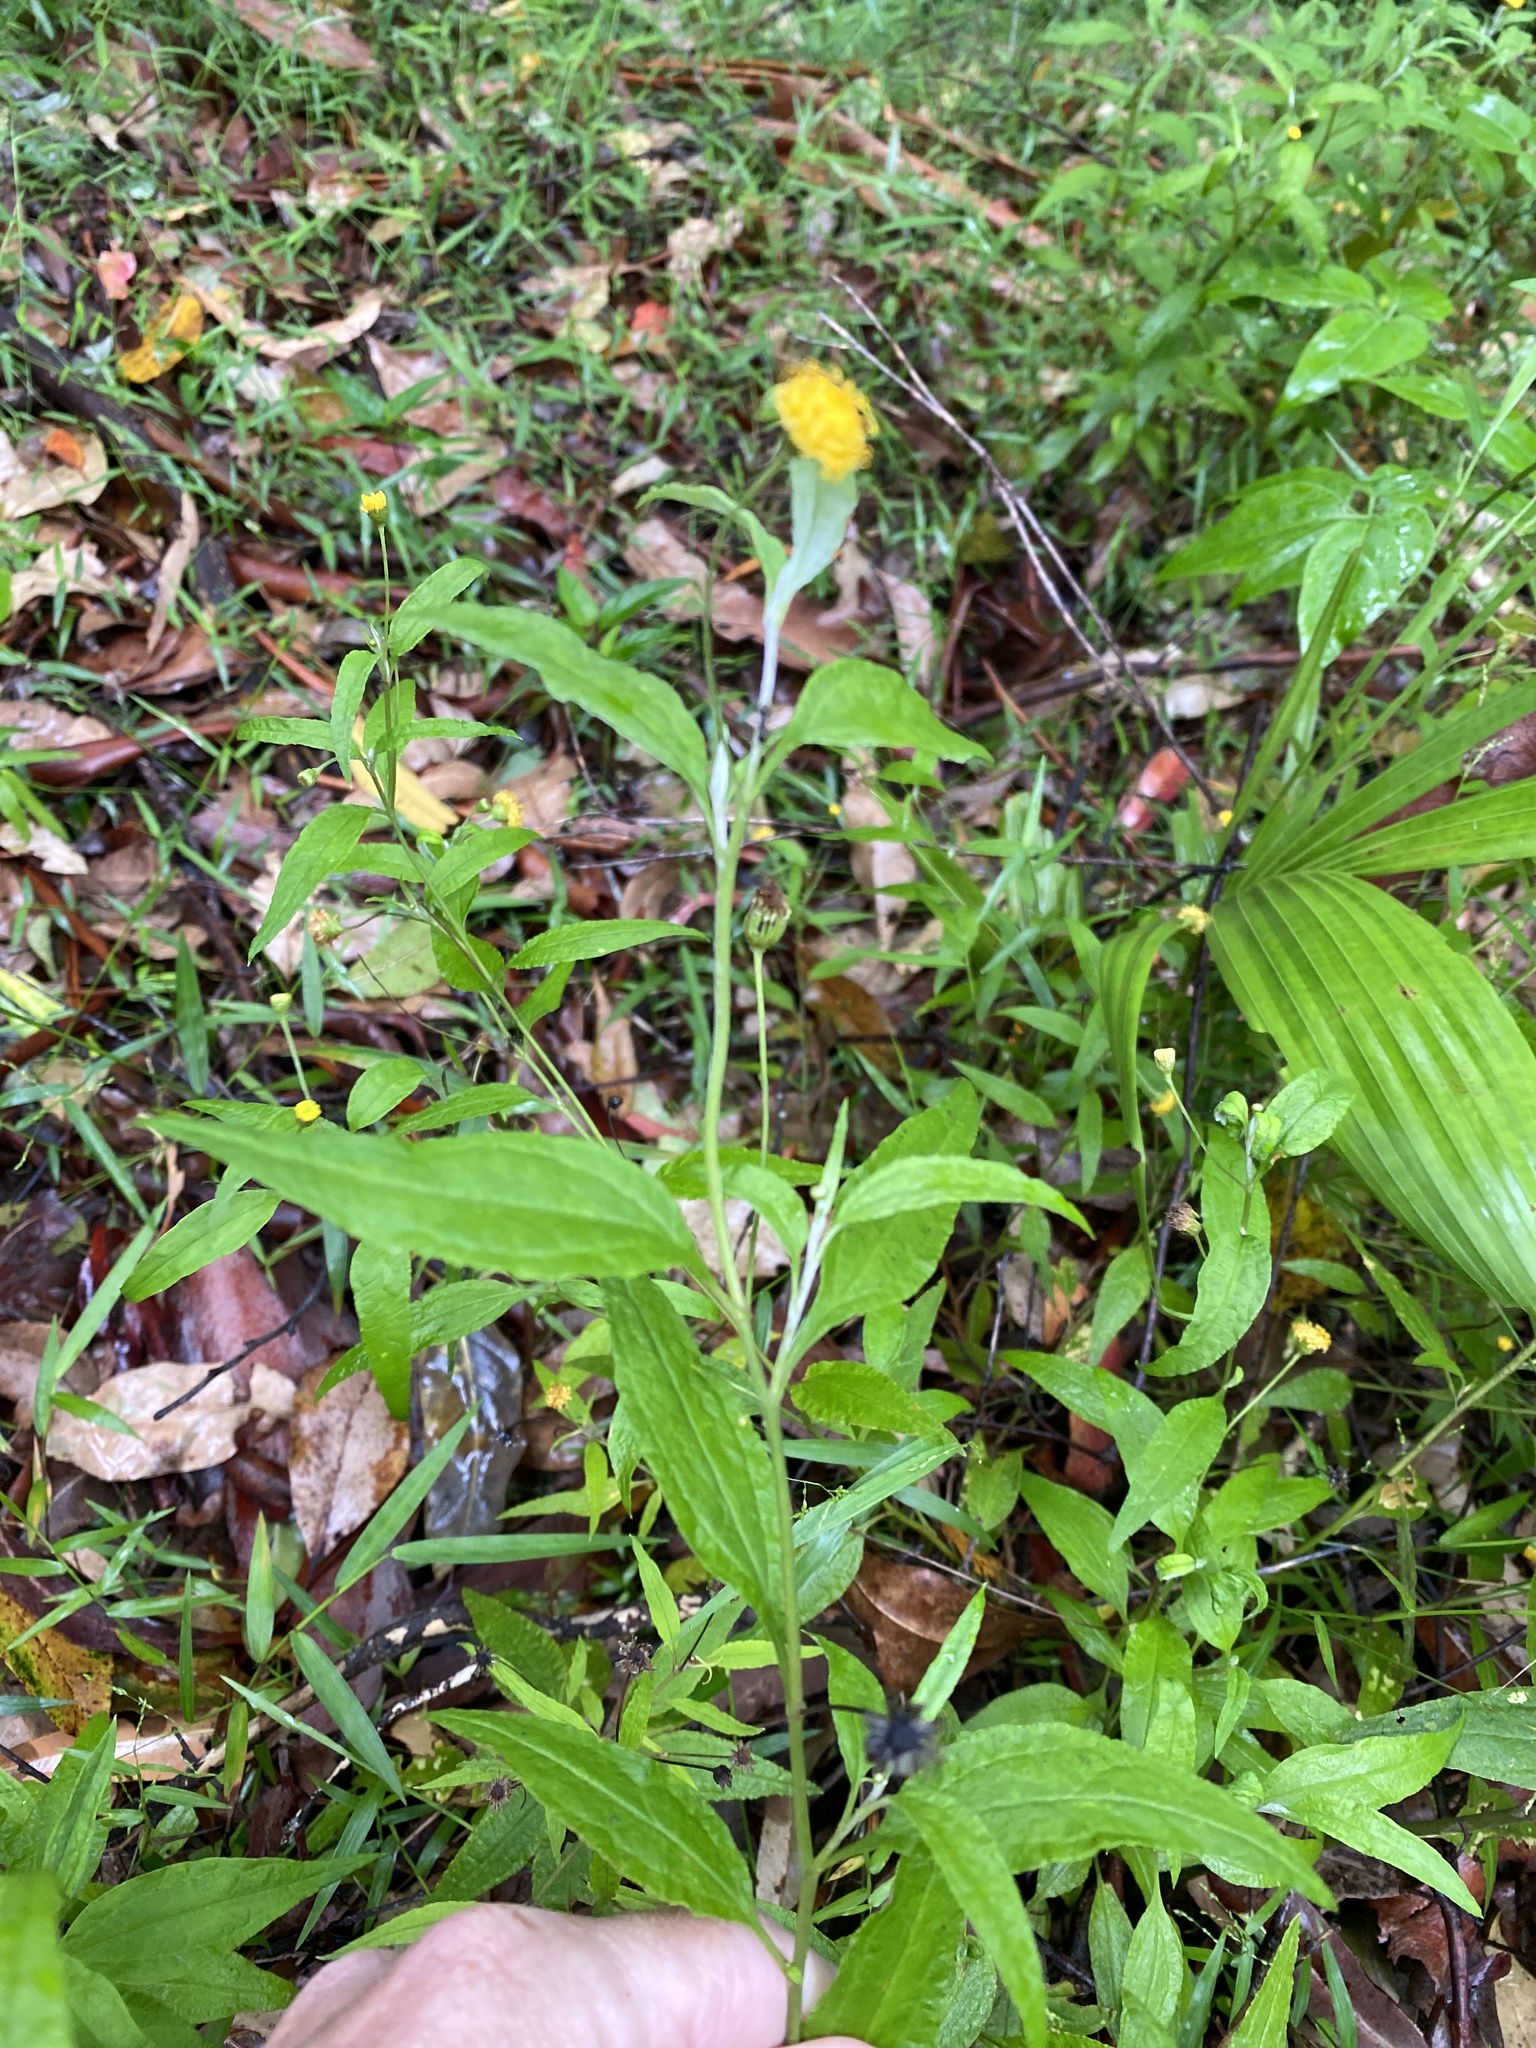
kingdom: Plantae
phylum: Tracheophyta
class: Magnoliopsida
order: Asterales
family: Asteraceae
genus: Acomis
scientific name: Acomis acoma
